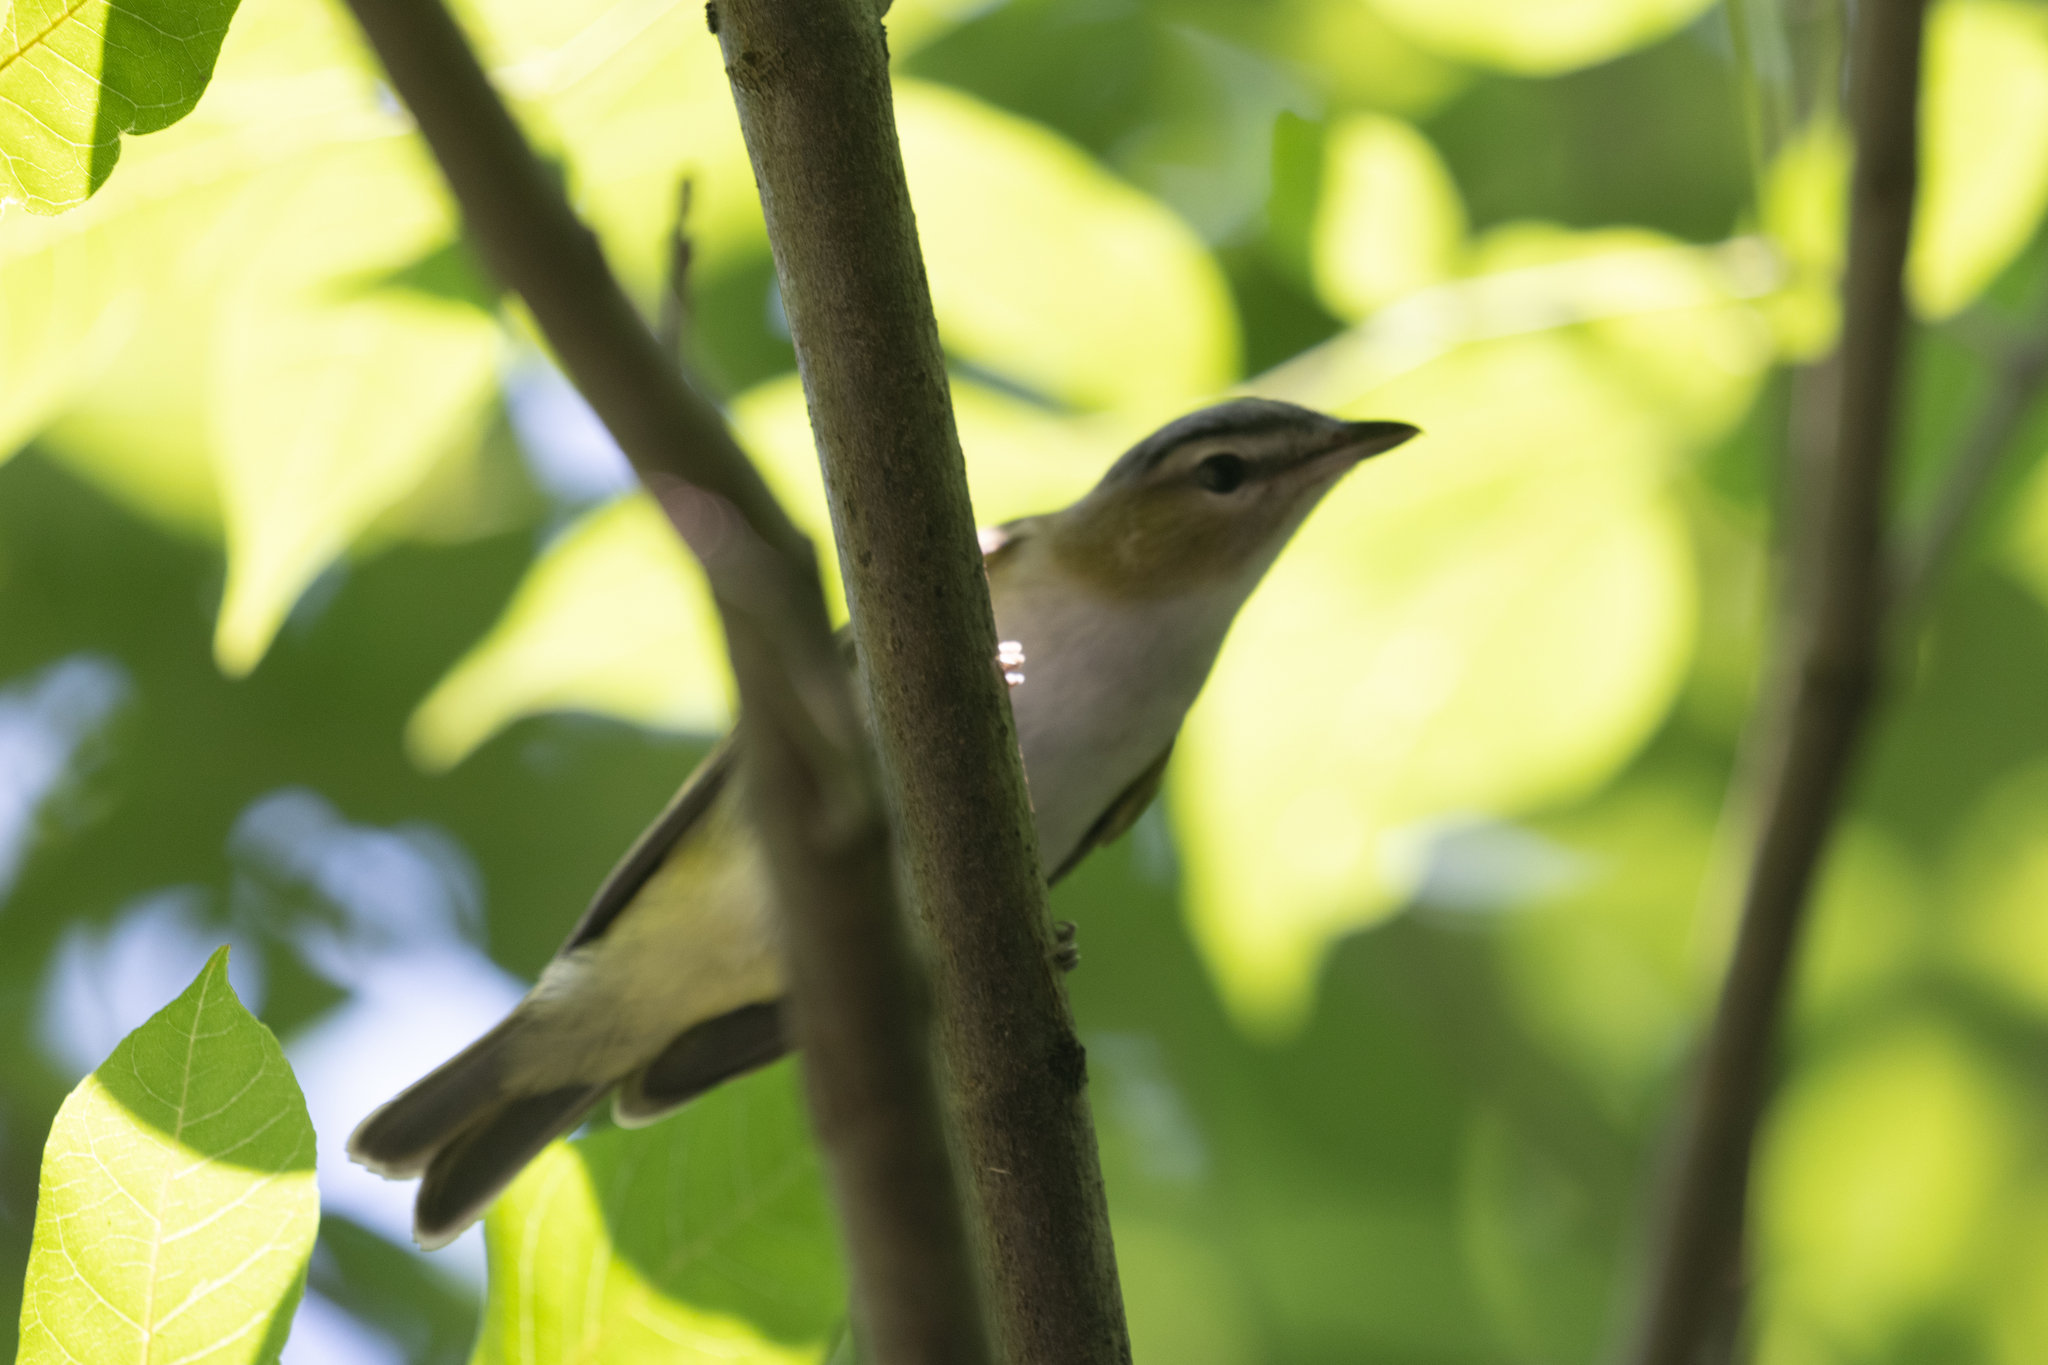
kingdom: Animalia
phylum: Chordata
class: Aves
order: Passeriformes
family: Vireonidae
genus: Vireo
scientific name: Vireo olivaceus
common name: Red-eyed vireo
